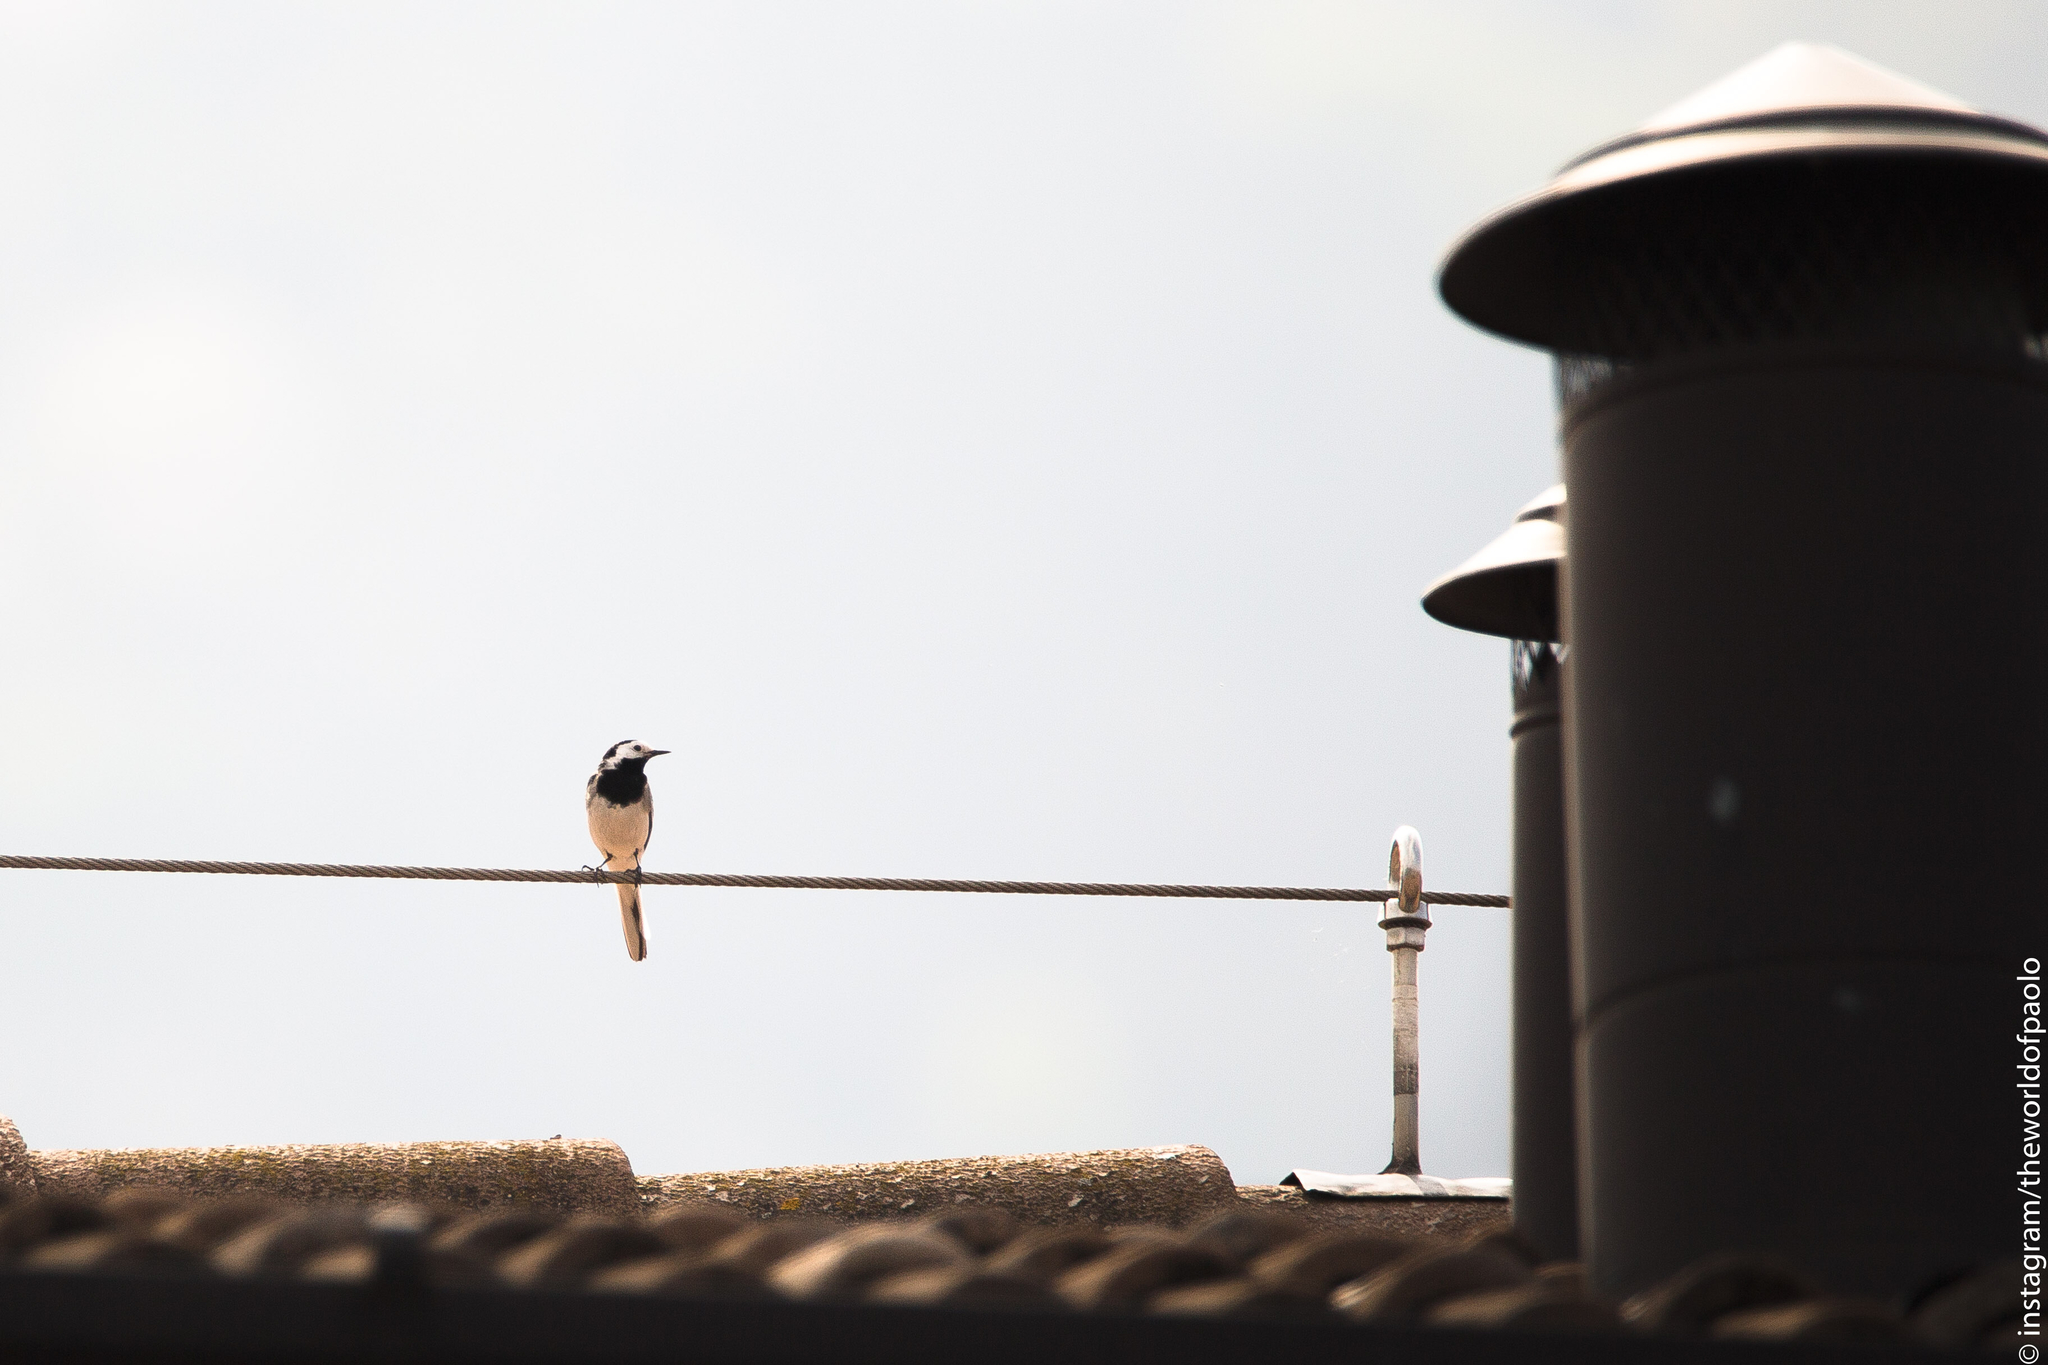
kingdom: Animalia
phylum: Chordata
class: Aves
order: Passeriformes
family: Motacillidae
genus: Motacilla
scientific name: Motacilla alba
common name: White wagtail
